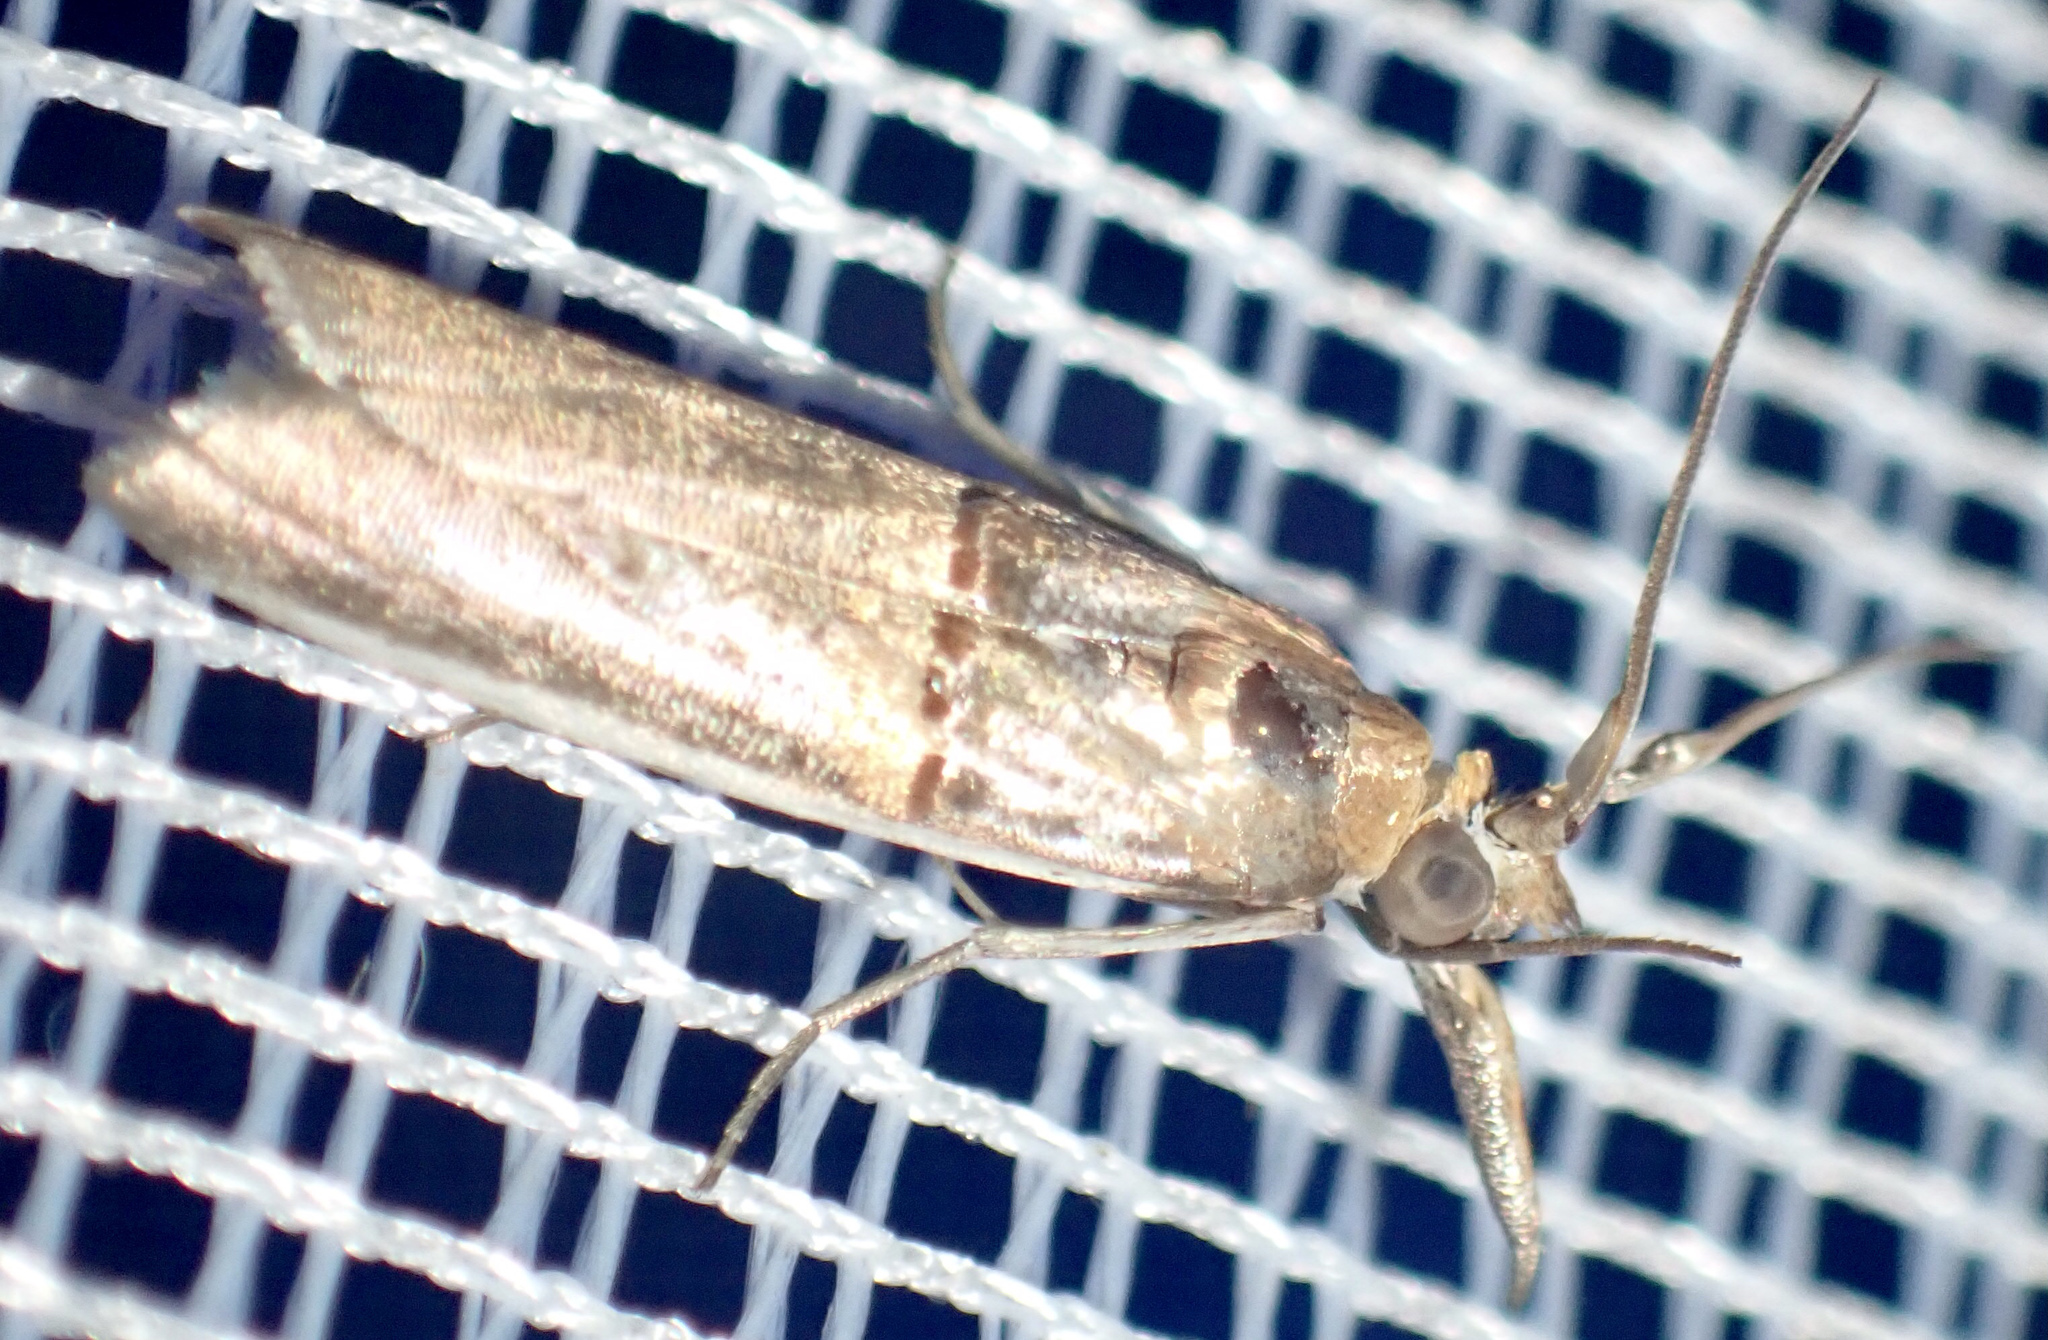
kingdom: Animalia
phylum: Arthropoda
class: Insecta
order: Lepidoptera
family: Pyralidae
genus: Etiella
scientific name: Etiella zinckenella
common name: Gold-banded etiella moth
